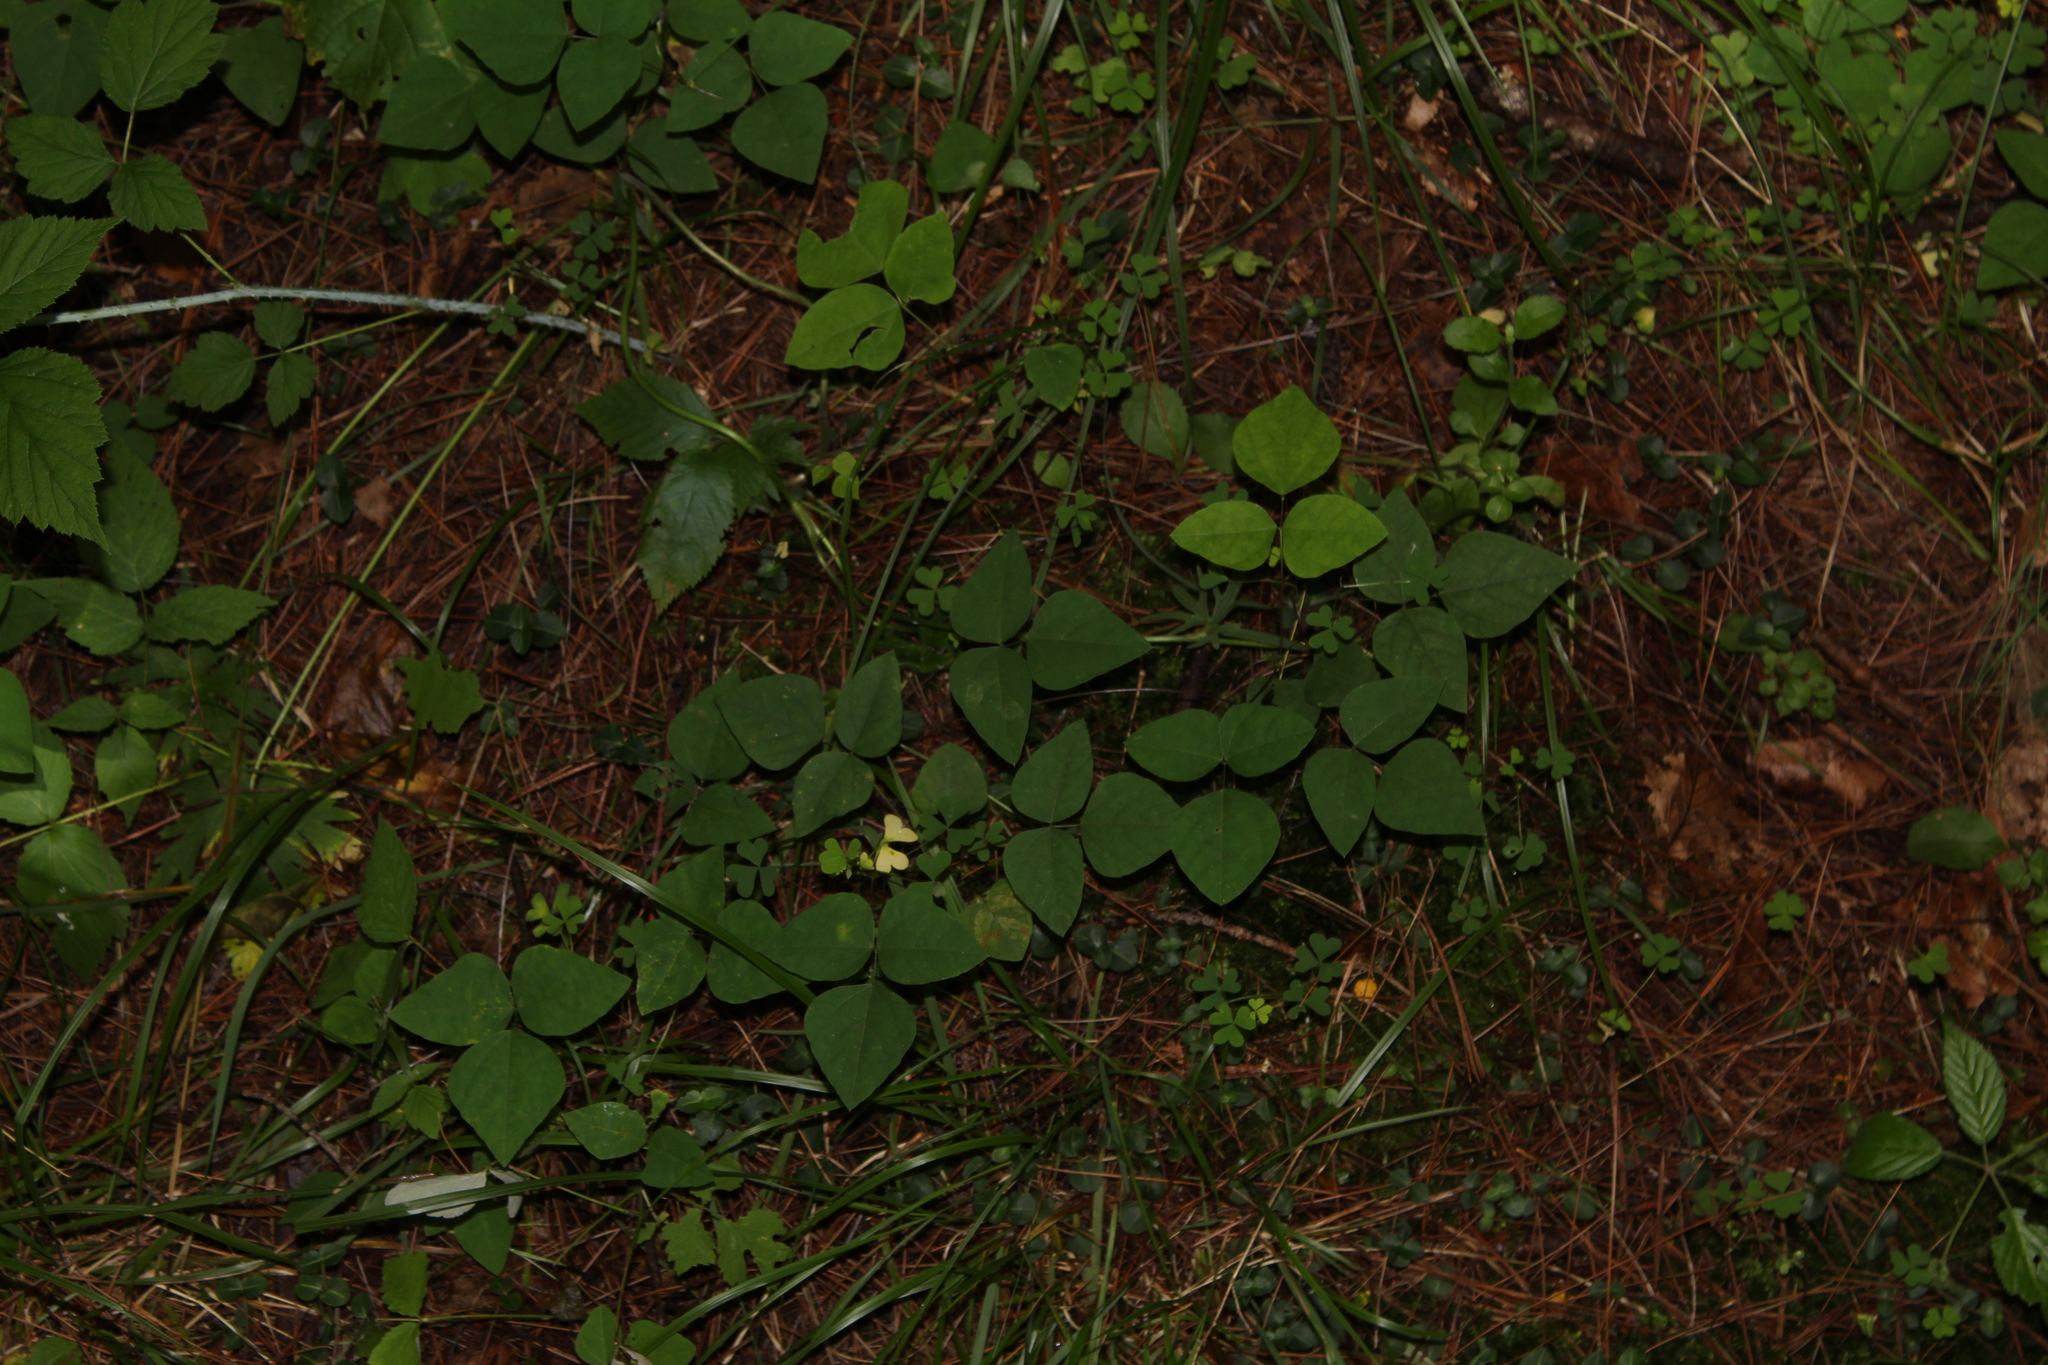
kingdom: Plantae
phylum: Tracheophyta
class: Magnoliopsida
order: Fabales
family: Fabaceae
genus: Amphicarpaea
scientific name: Amphicarpaea bracteata
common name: American hog peanut
